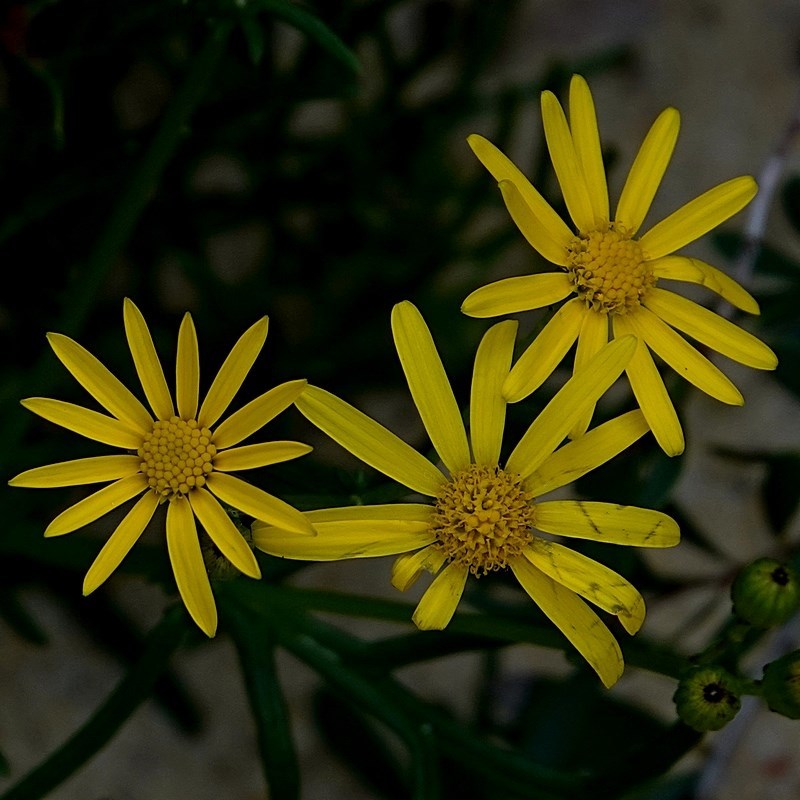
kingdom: Plantae
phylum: Tracheophyta
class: Magnoliopsida
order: Asterales
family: Asteraceae
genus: Senecio
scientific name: Senecio pinnatifolius
